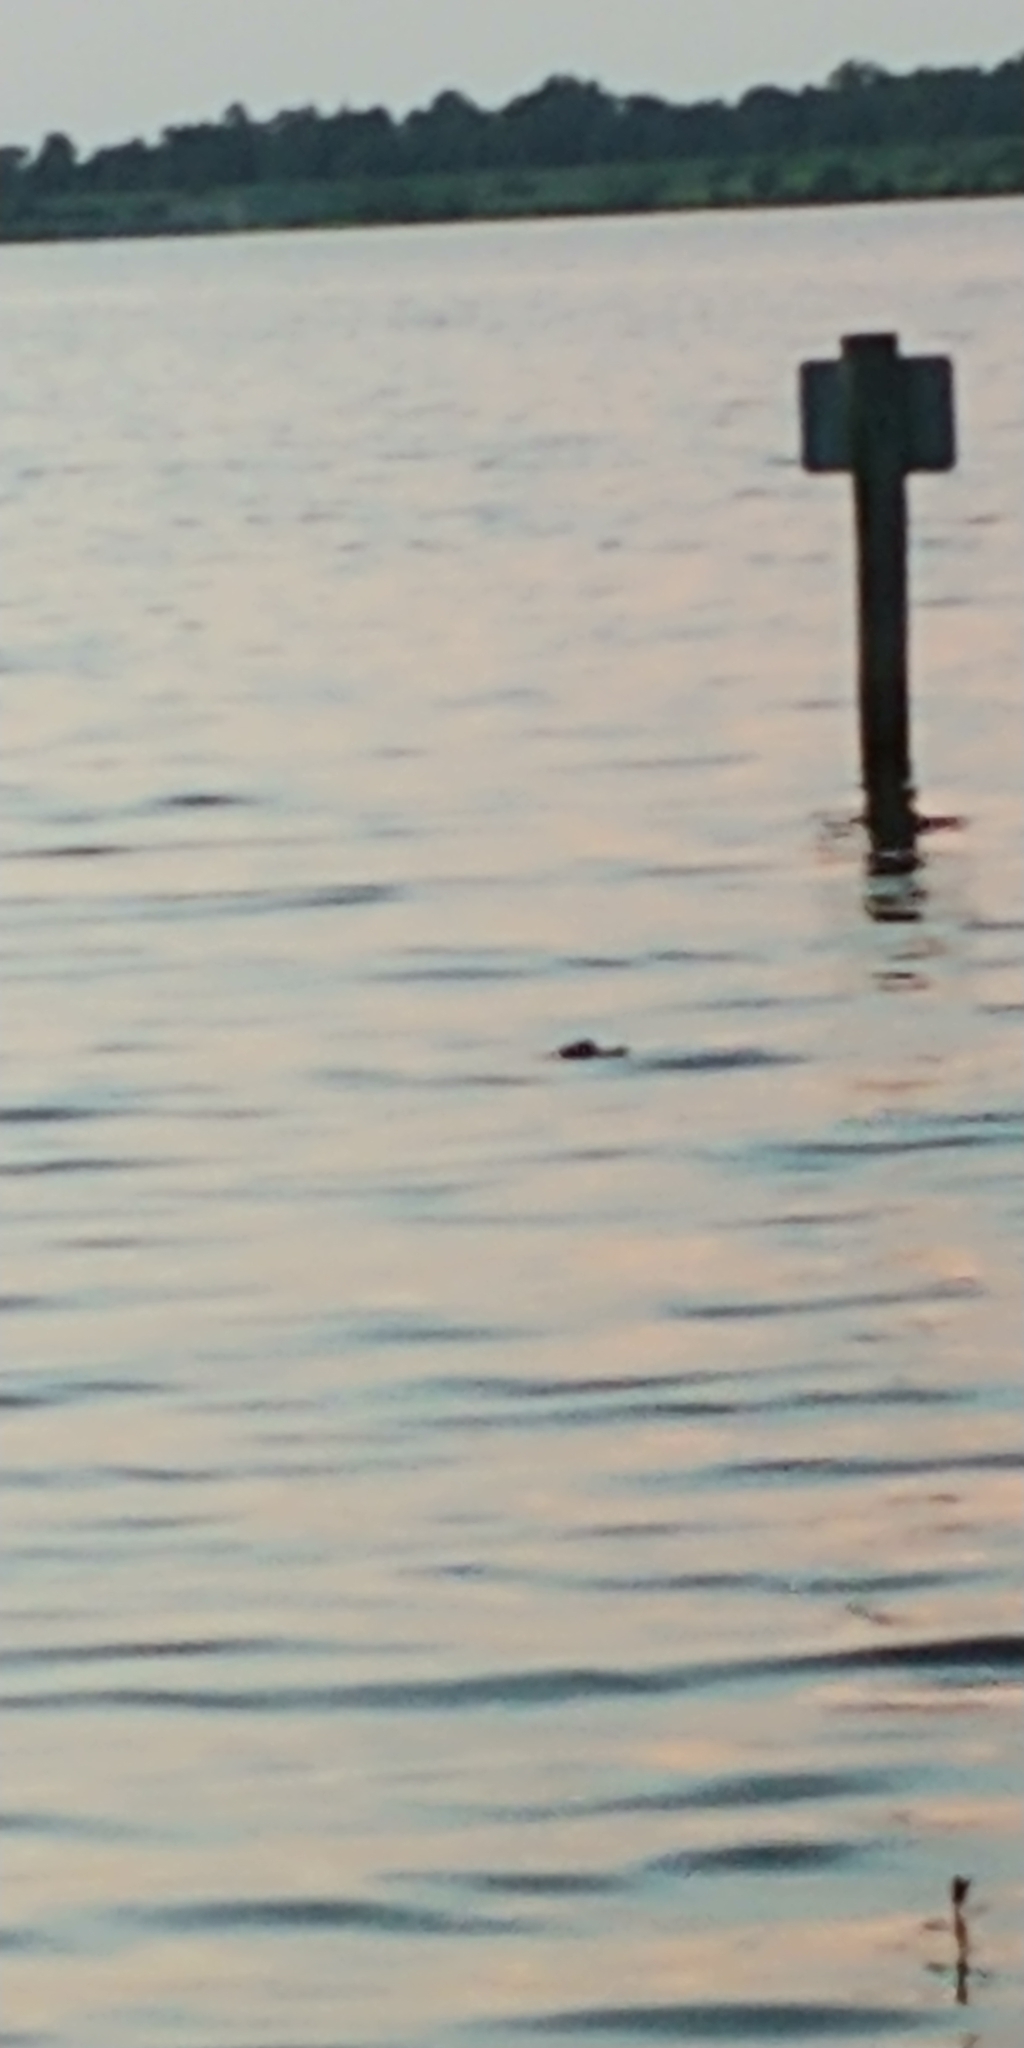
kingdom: Animalia
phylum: Chordata
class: Crocodylia
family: Alligatoridae
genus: Alligator
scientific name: Alligator mississippiensis
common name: American alligator
